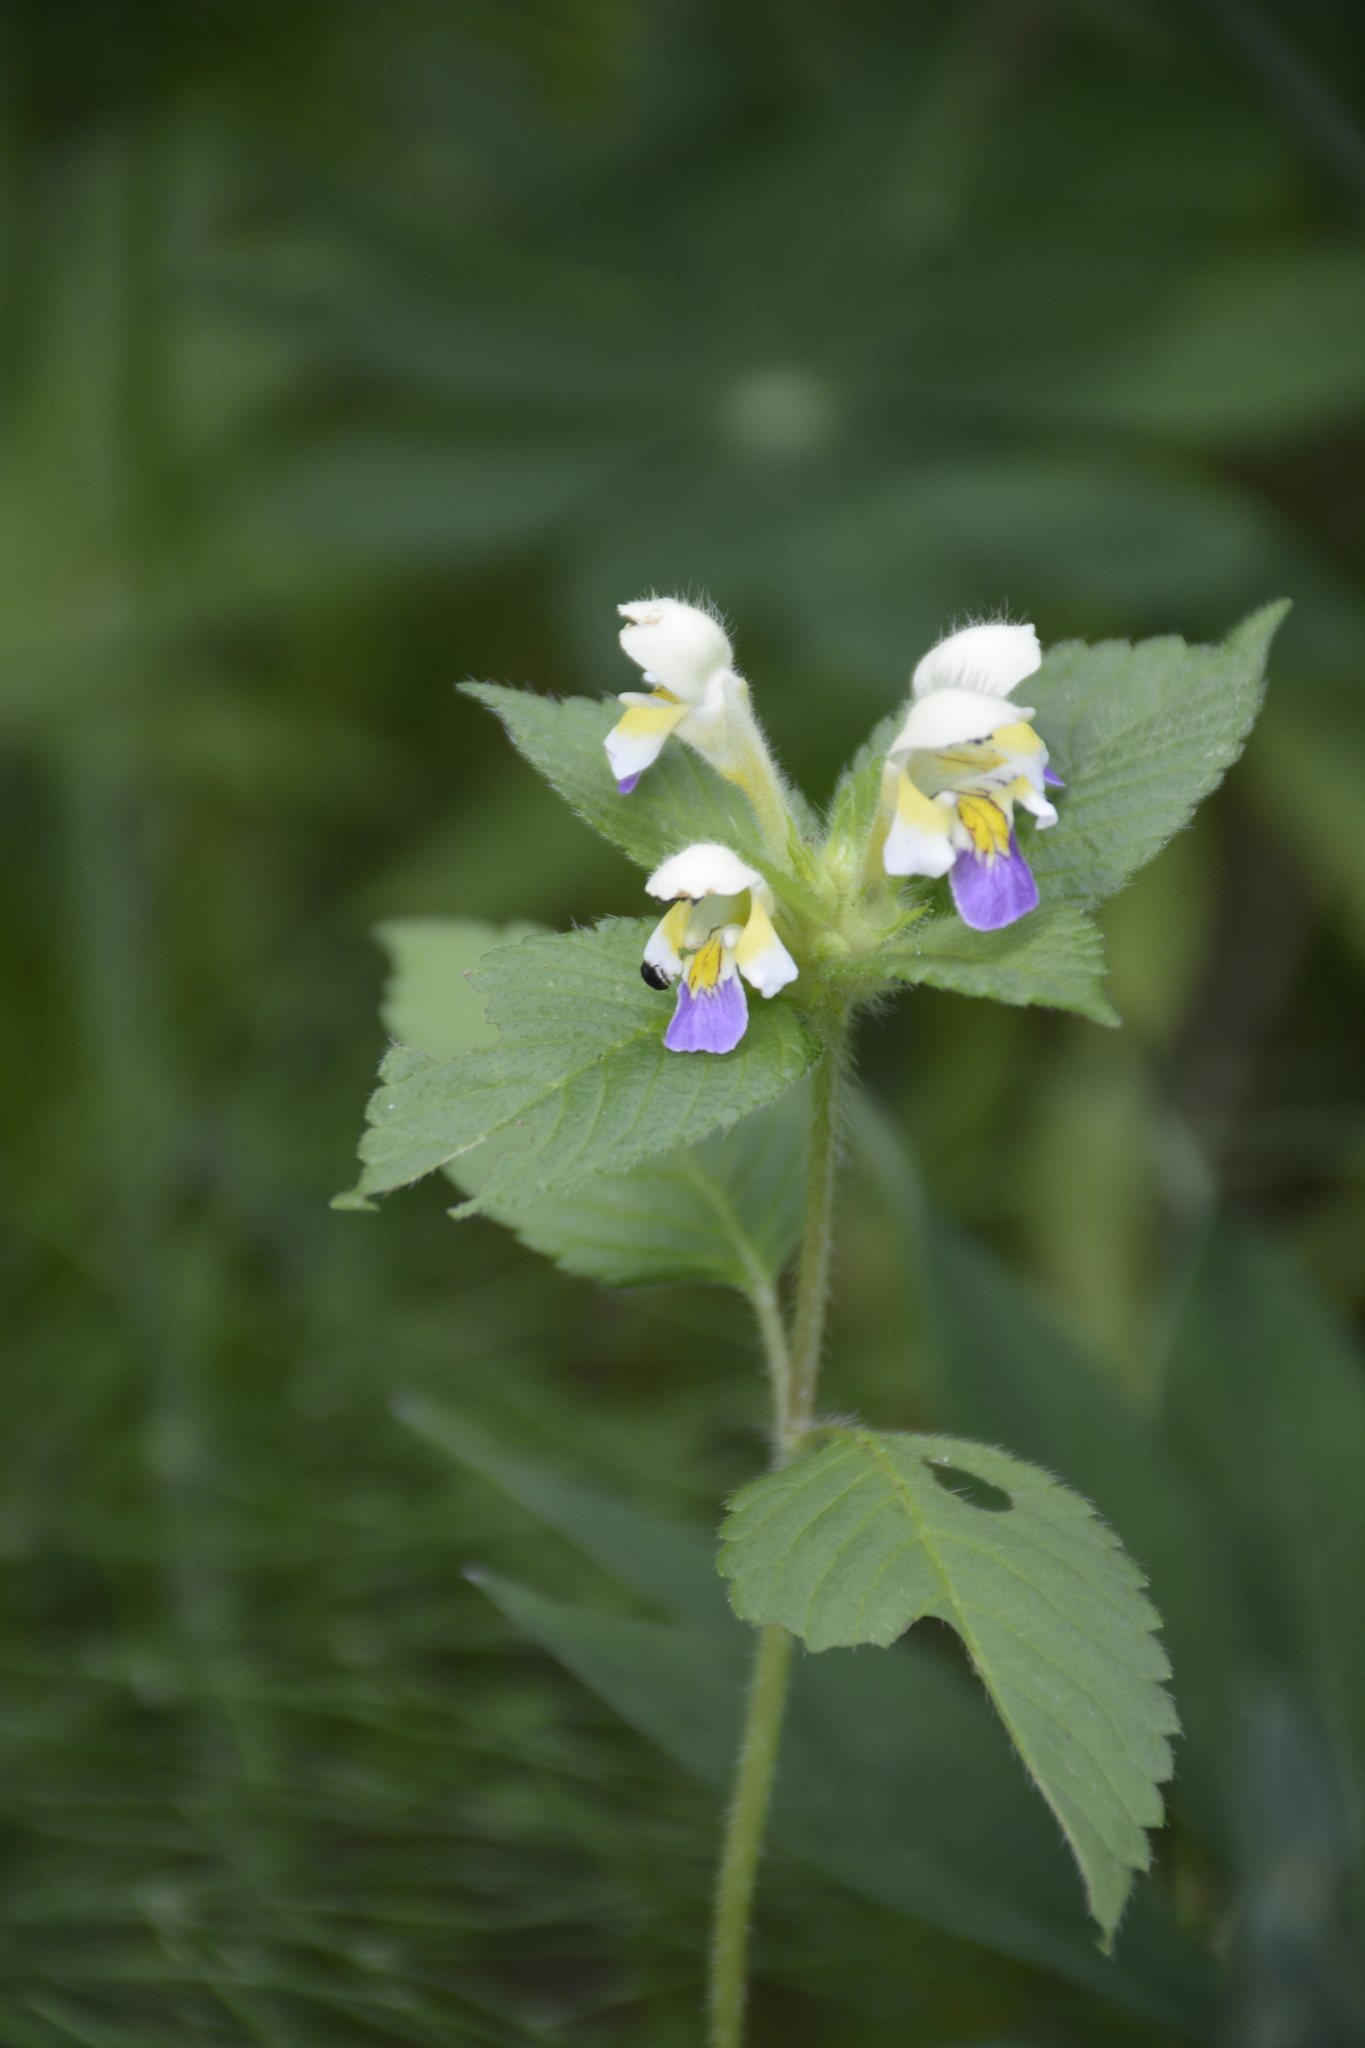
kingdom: Plantae
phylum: Tracheophyta
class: Magnoliopsida
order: Lamiales
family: Lamiaceae
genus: Galeopsis
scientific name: Galeopsis speciosa
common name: Large-flowered hemp-nettle
